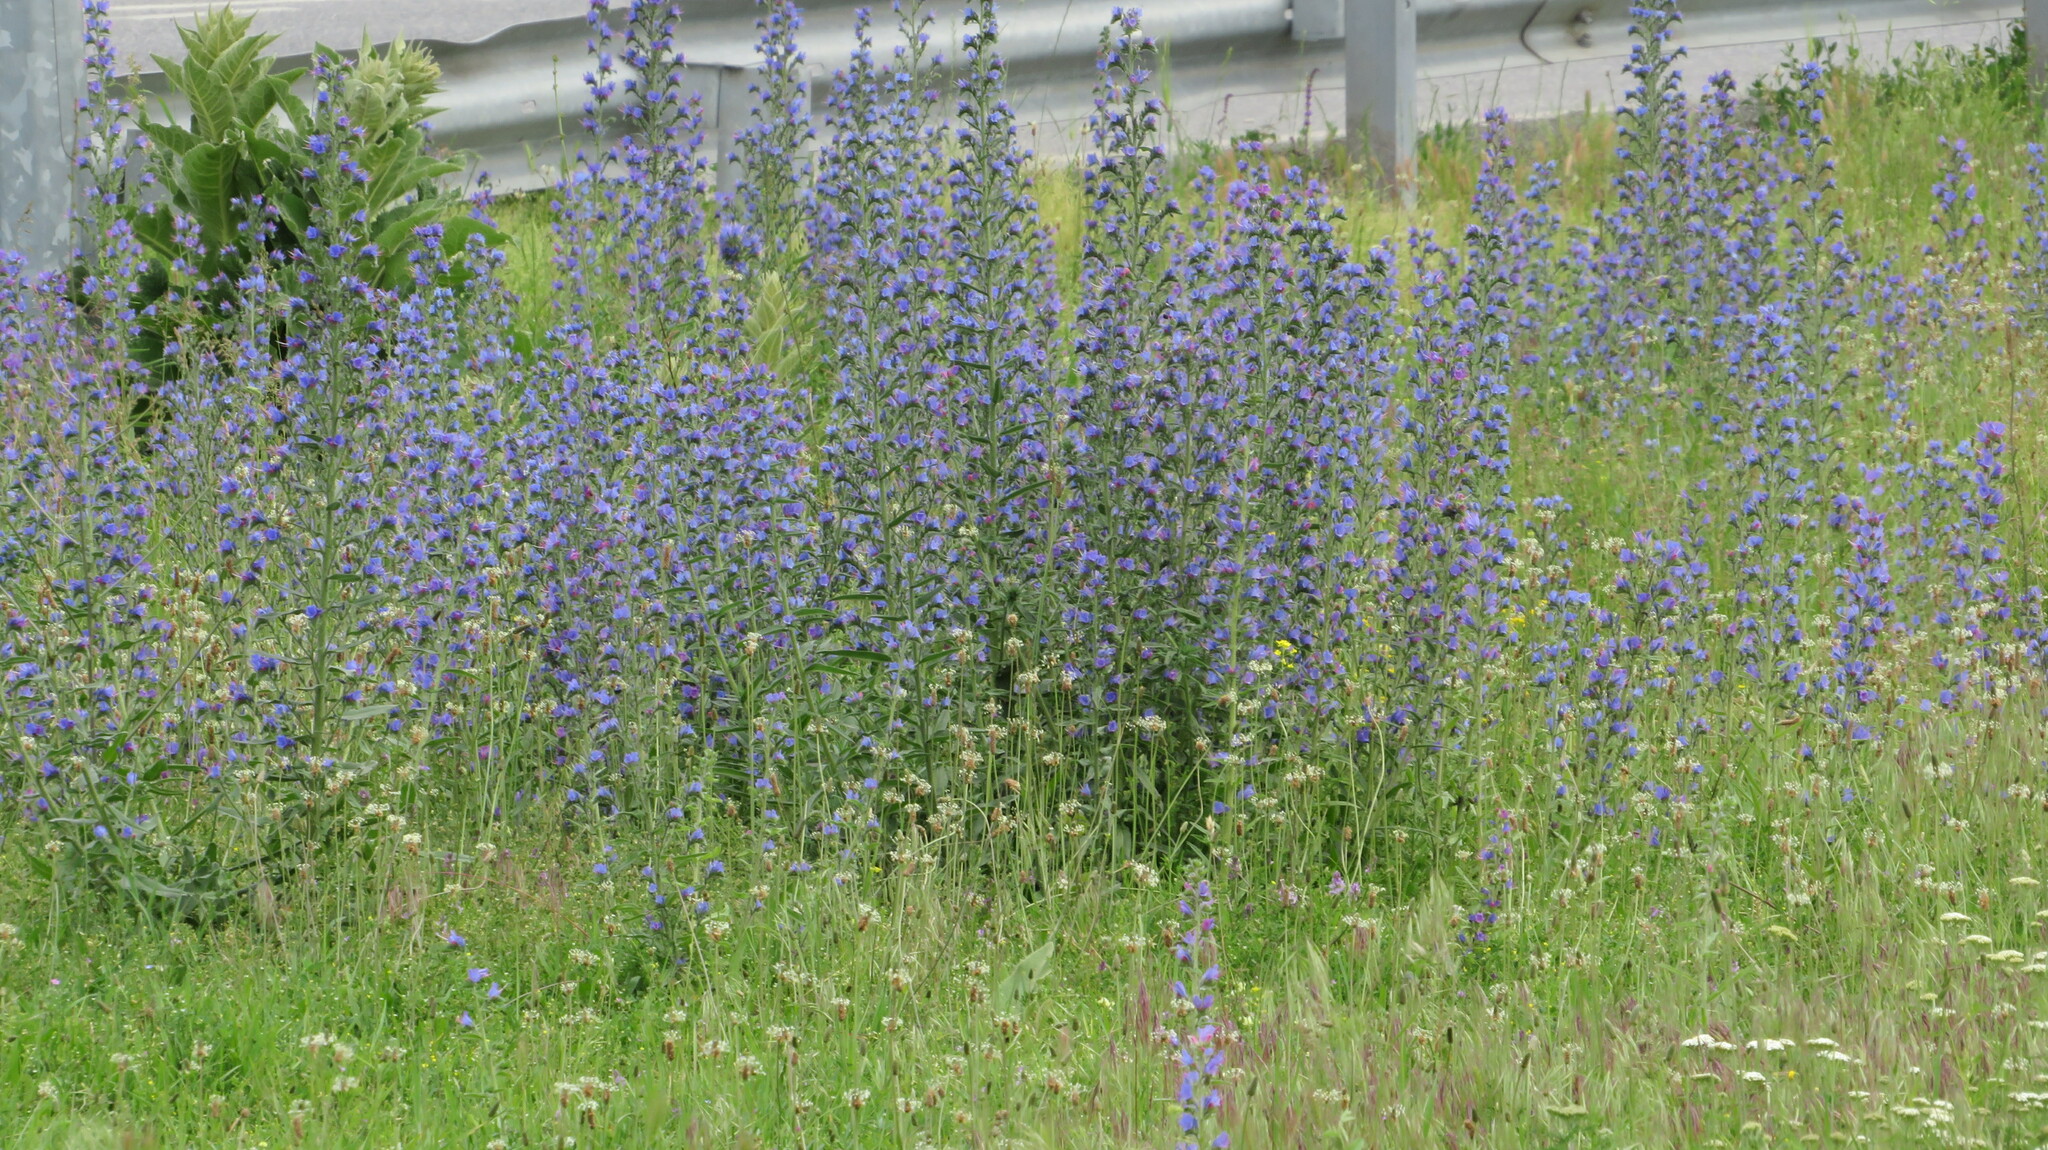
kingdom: Plantae
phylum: Tracheophyta
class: Magnoliopsida
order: Boraginales
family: Boraginaceae
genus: Echium
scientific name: Echium vulgare
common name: Common viper's bugloss
